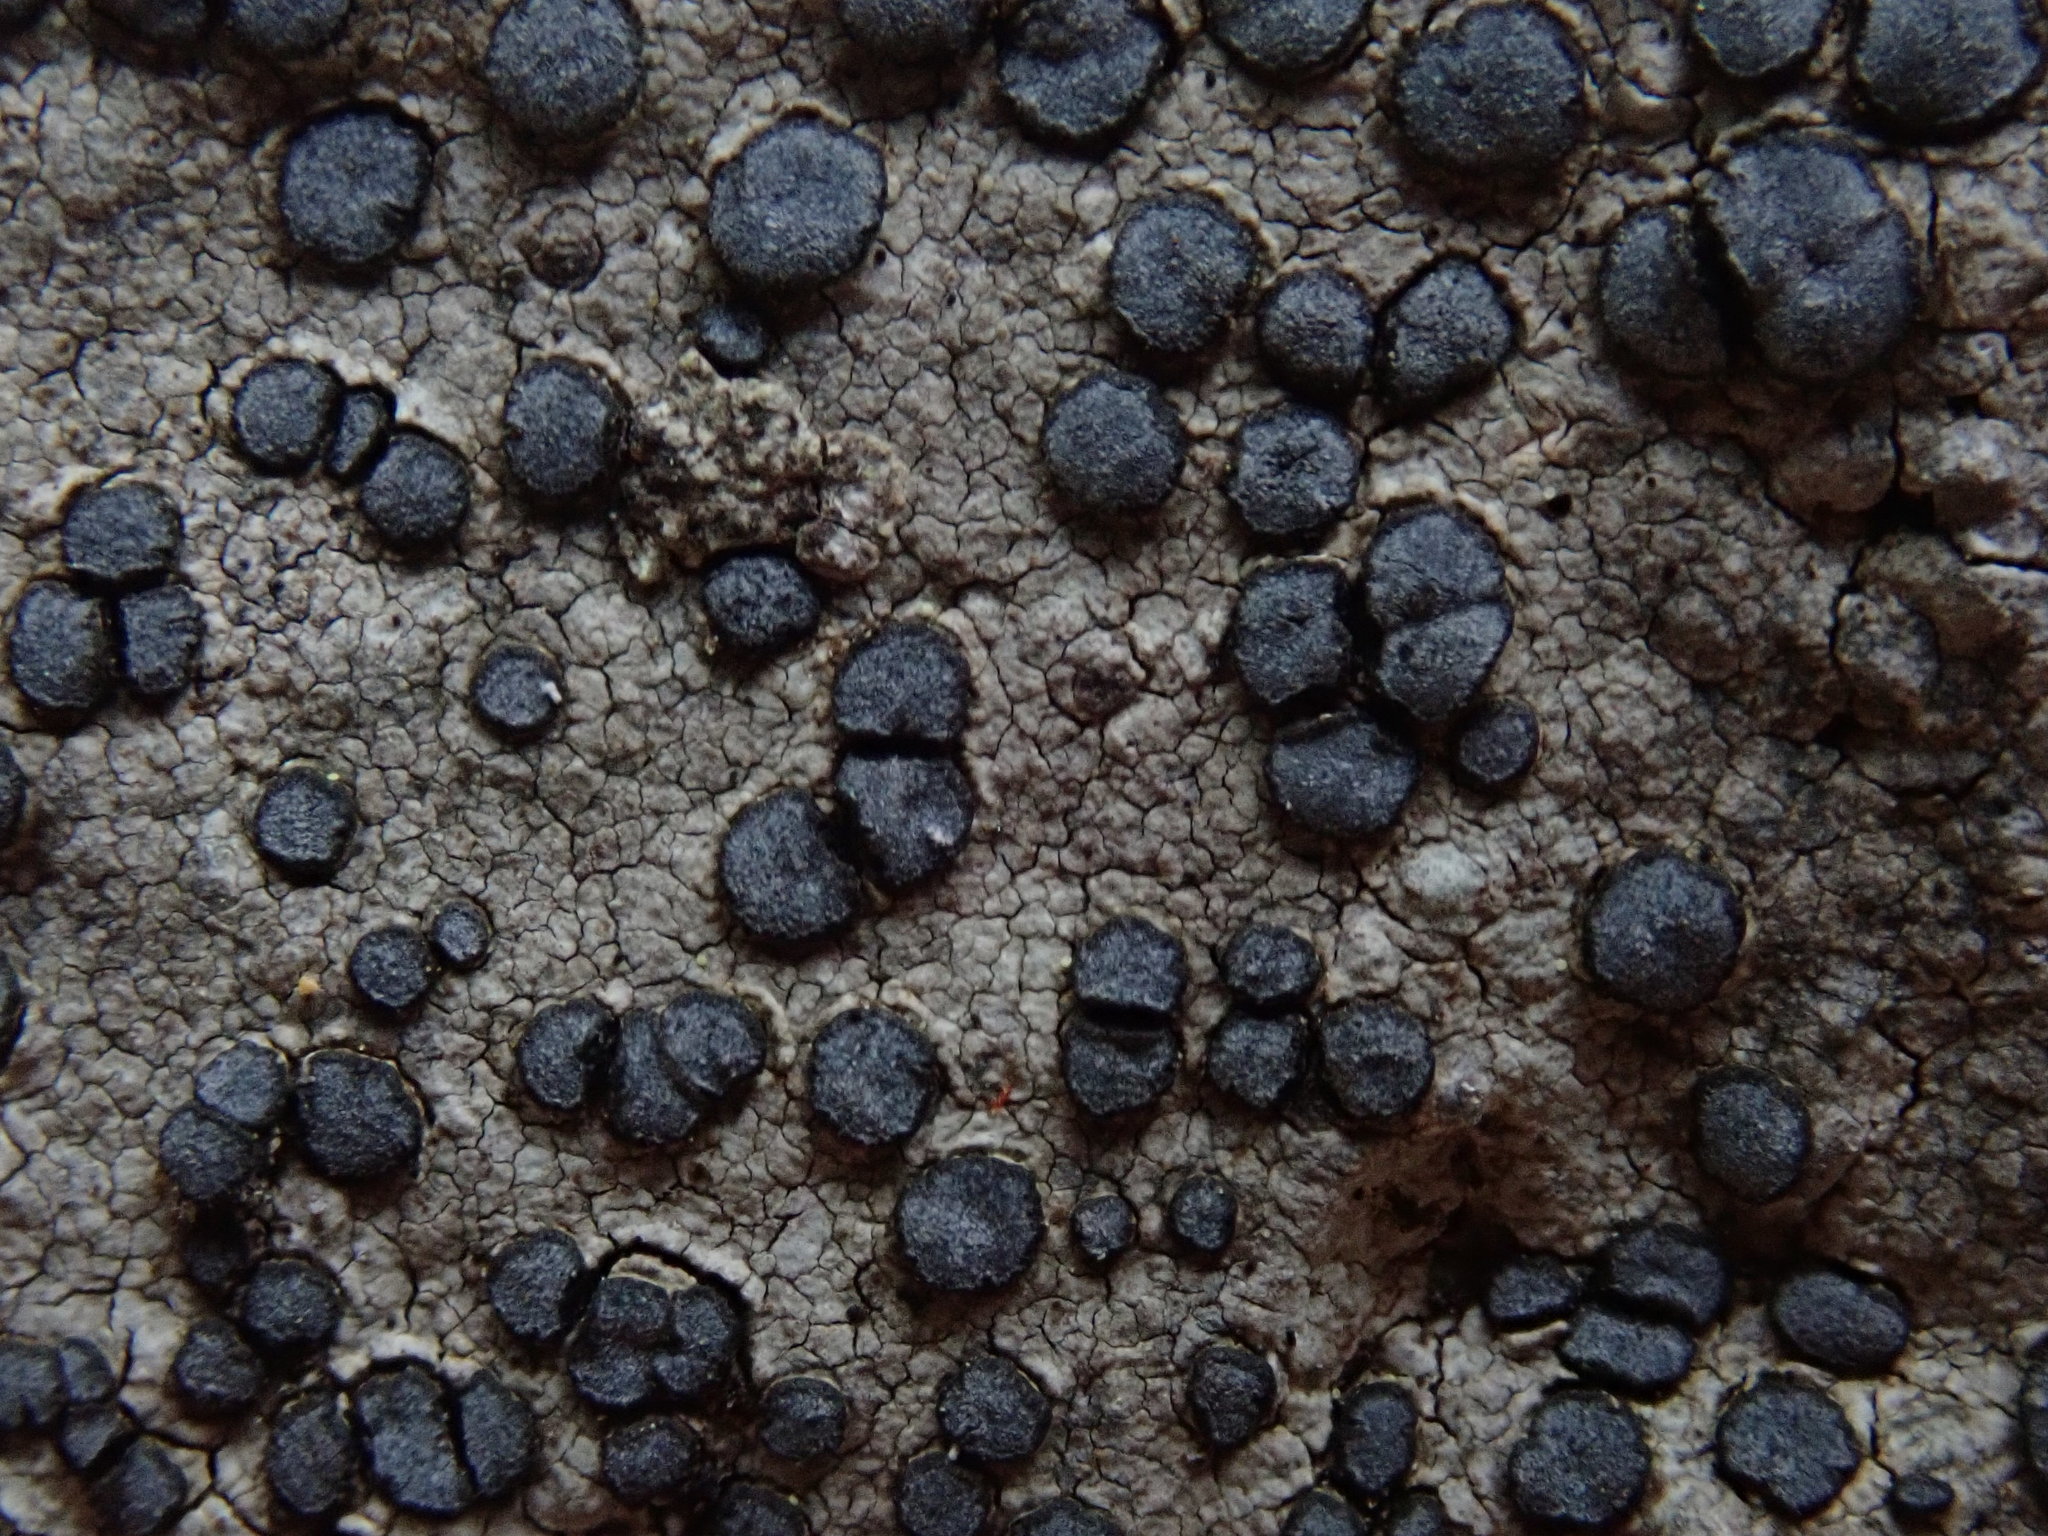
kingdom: Fungi
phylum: Ascomycota
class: Lecanoromycetes
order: Lecideales
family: Lecideaceae
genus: Porpidia
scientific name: Porpidia albocaerulescens
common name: Smokey-eyed boulder lichen
